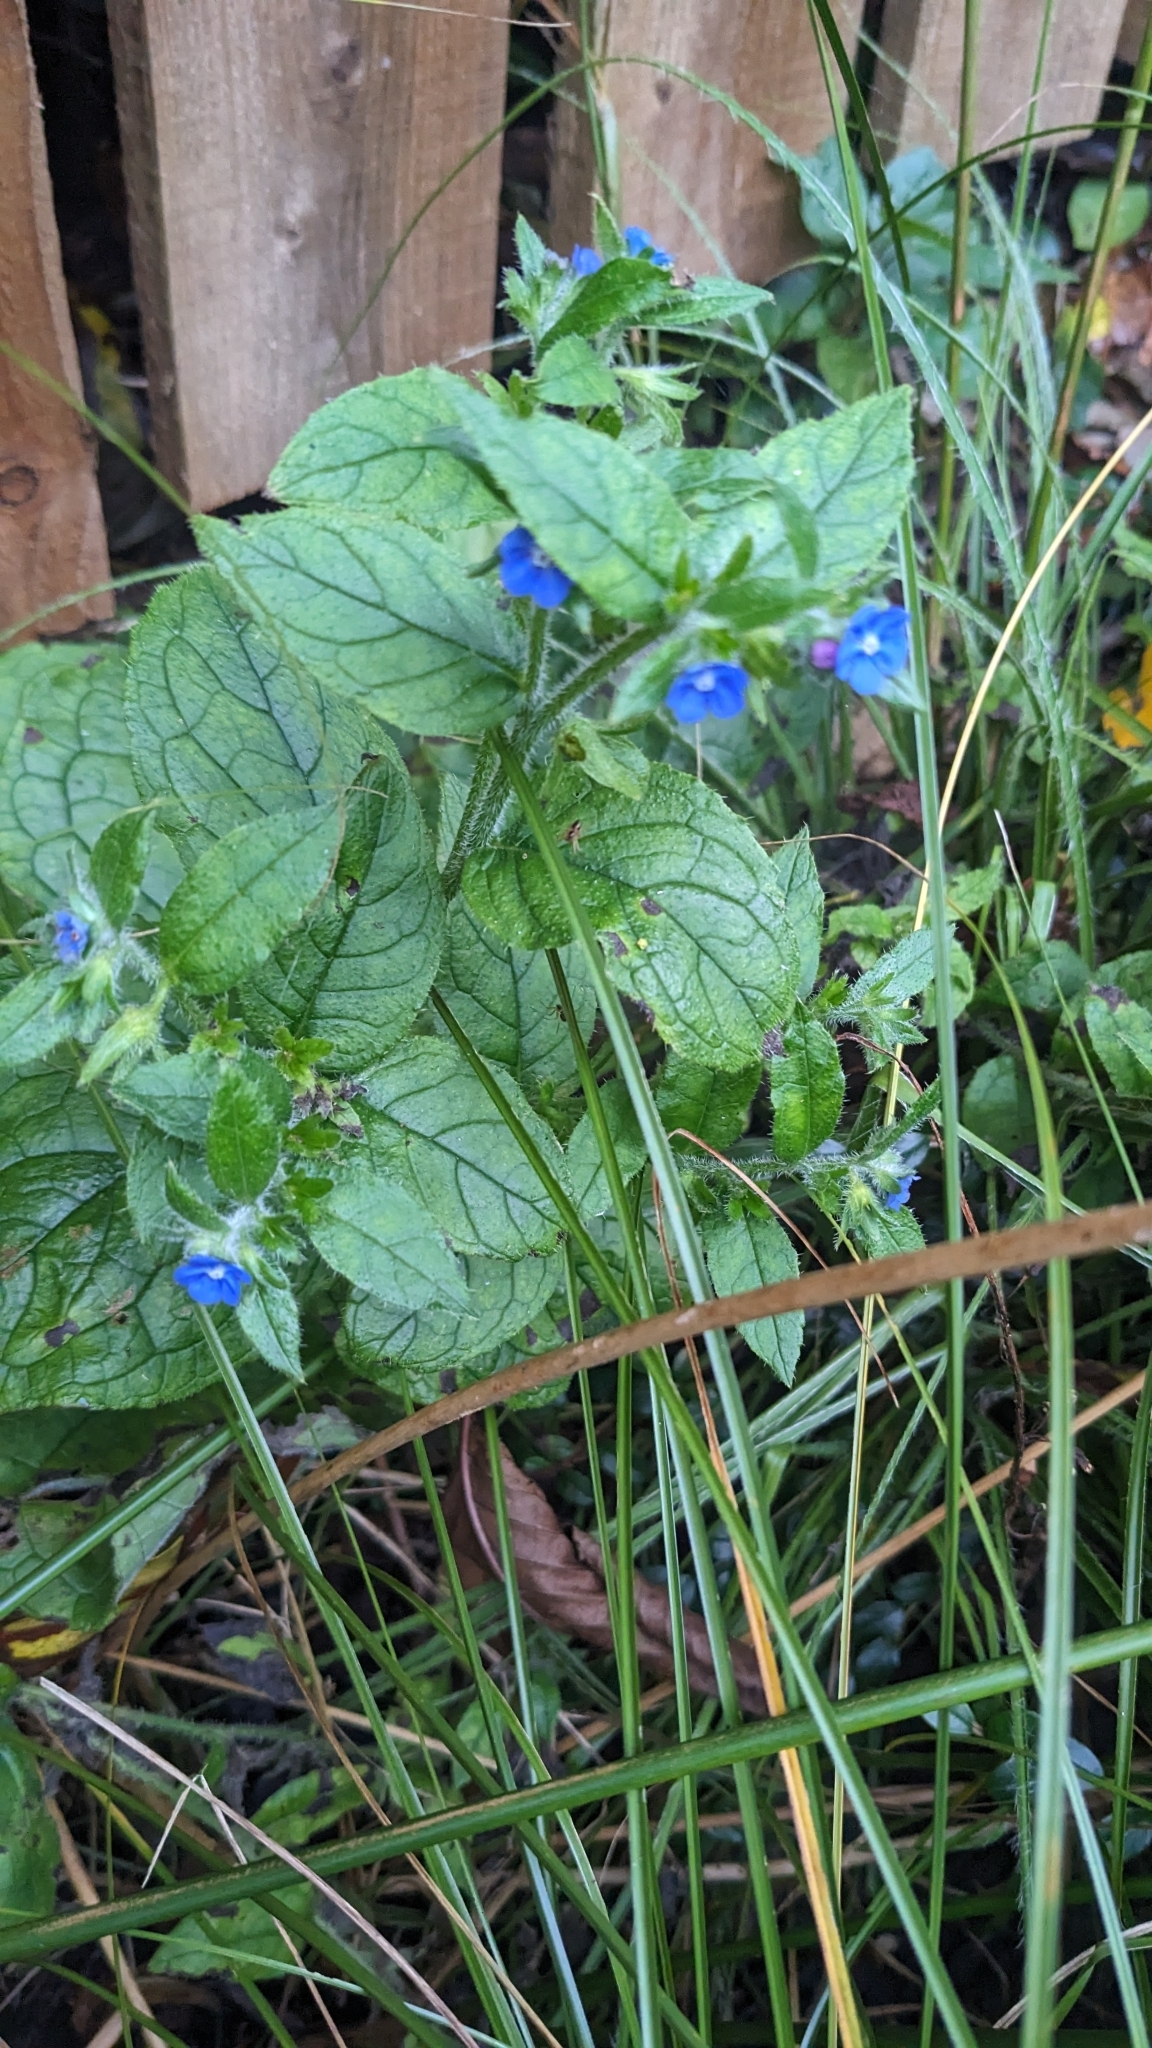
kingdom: Plantae
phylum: Tracheophyta
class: Magnoliopsida
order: Boraginales
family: Boraginaceae
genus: Pentaglottis
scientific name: Pentaglottis sempervirens
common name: Green alkanet
